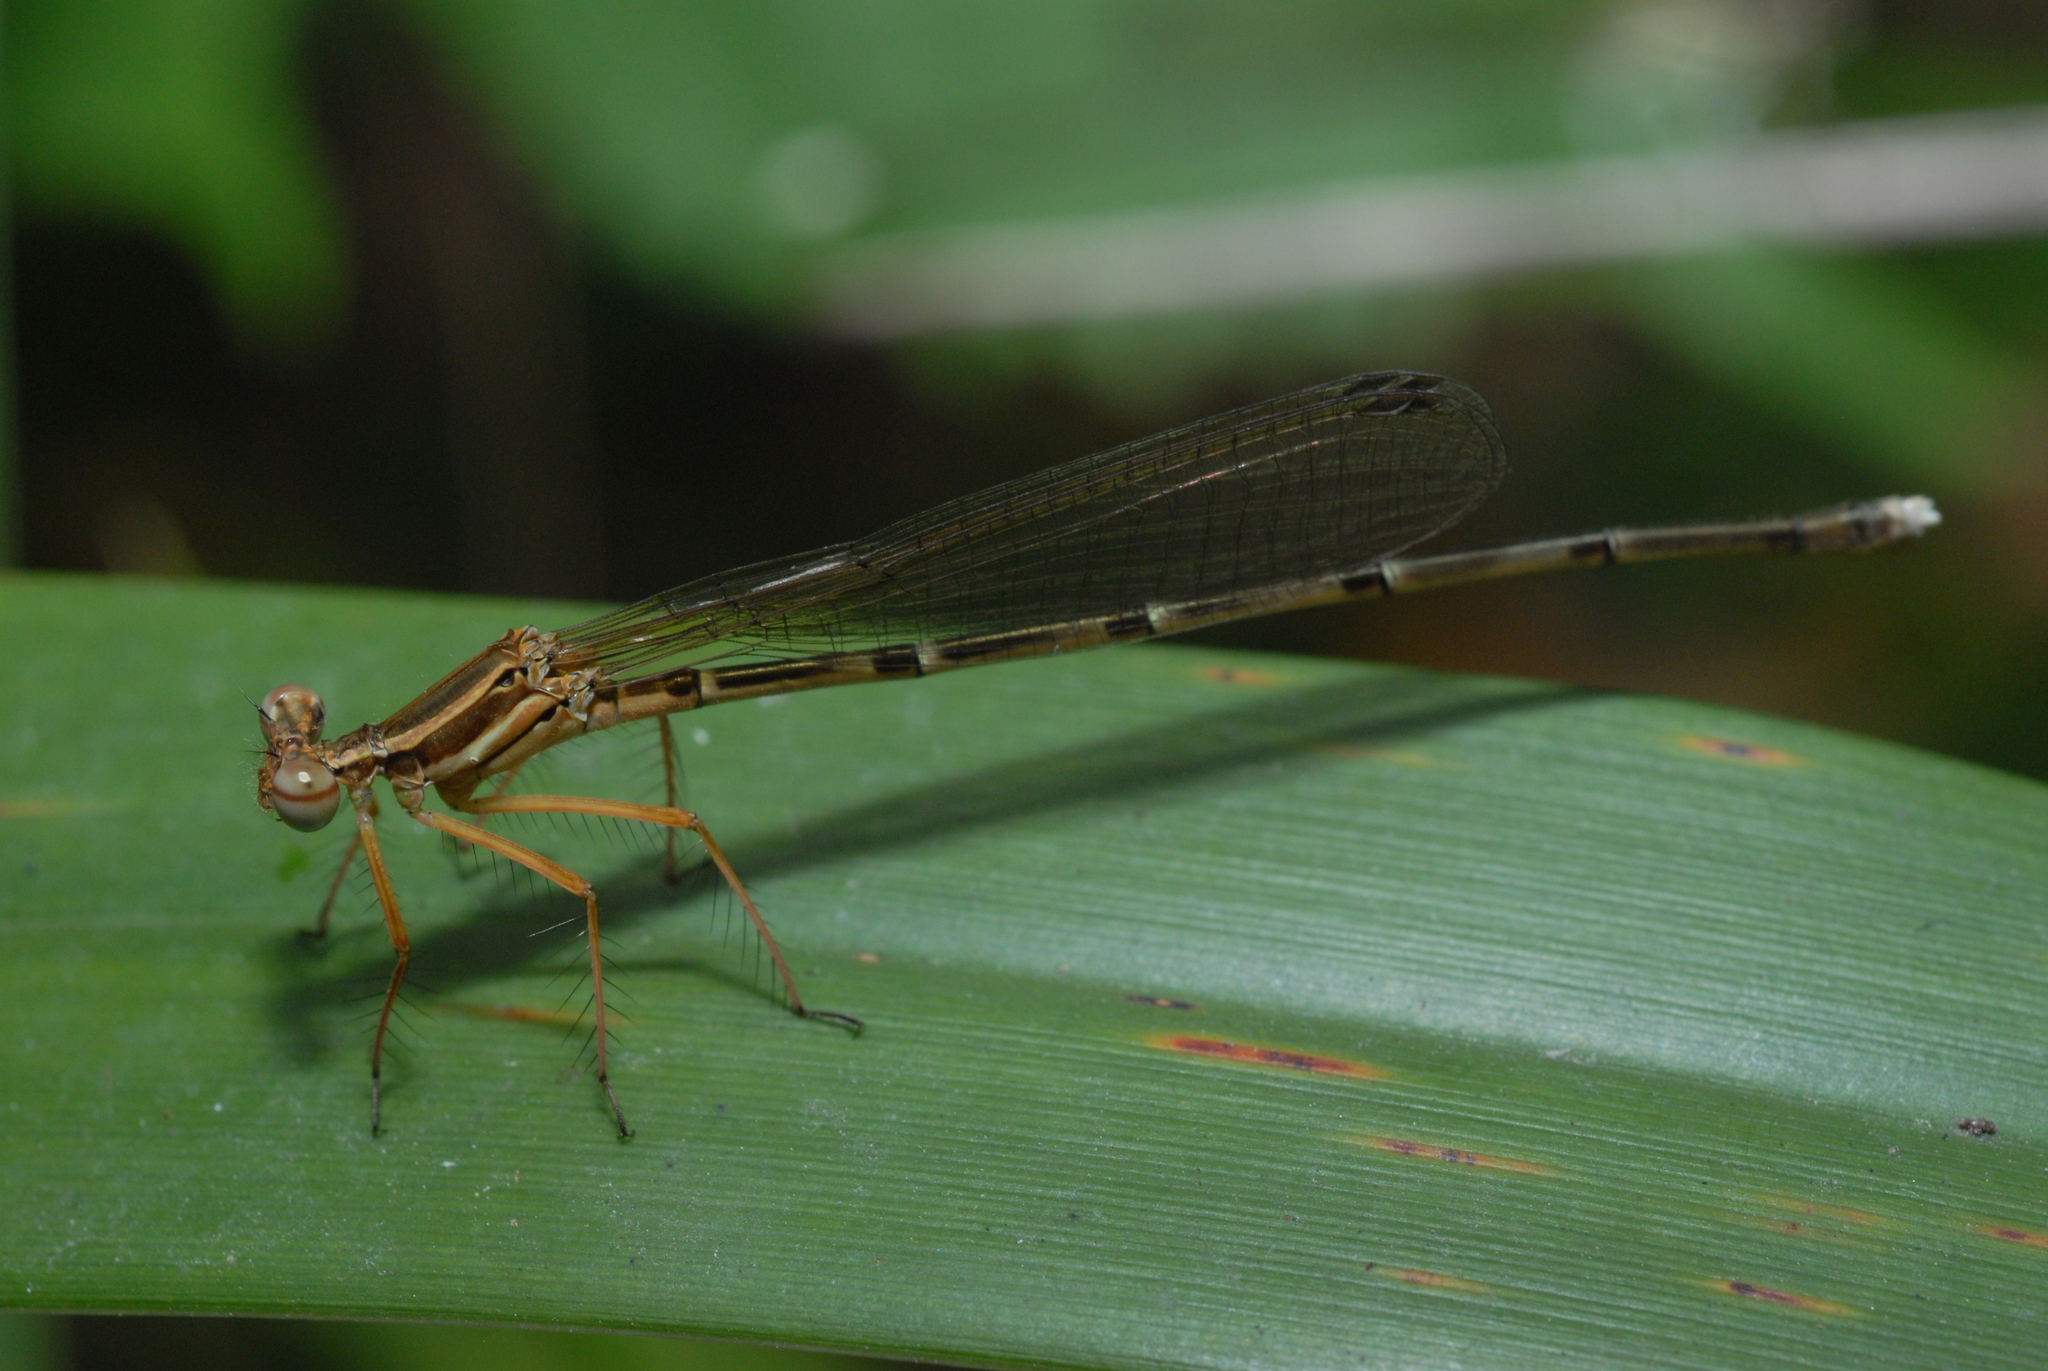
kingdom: Animalia
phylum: Arthropoda
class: Insecta
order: Odonata
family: Platycnemididae
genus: Pseudocopera
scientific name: Pseudocopera ciliata
